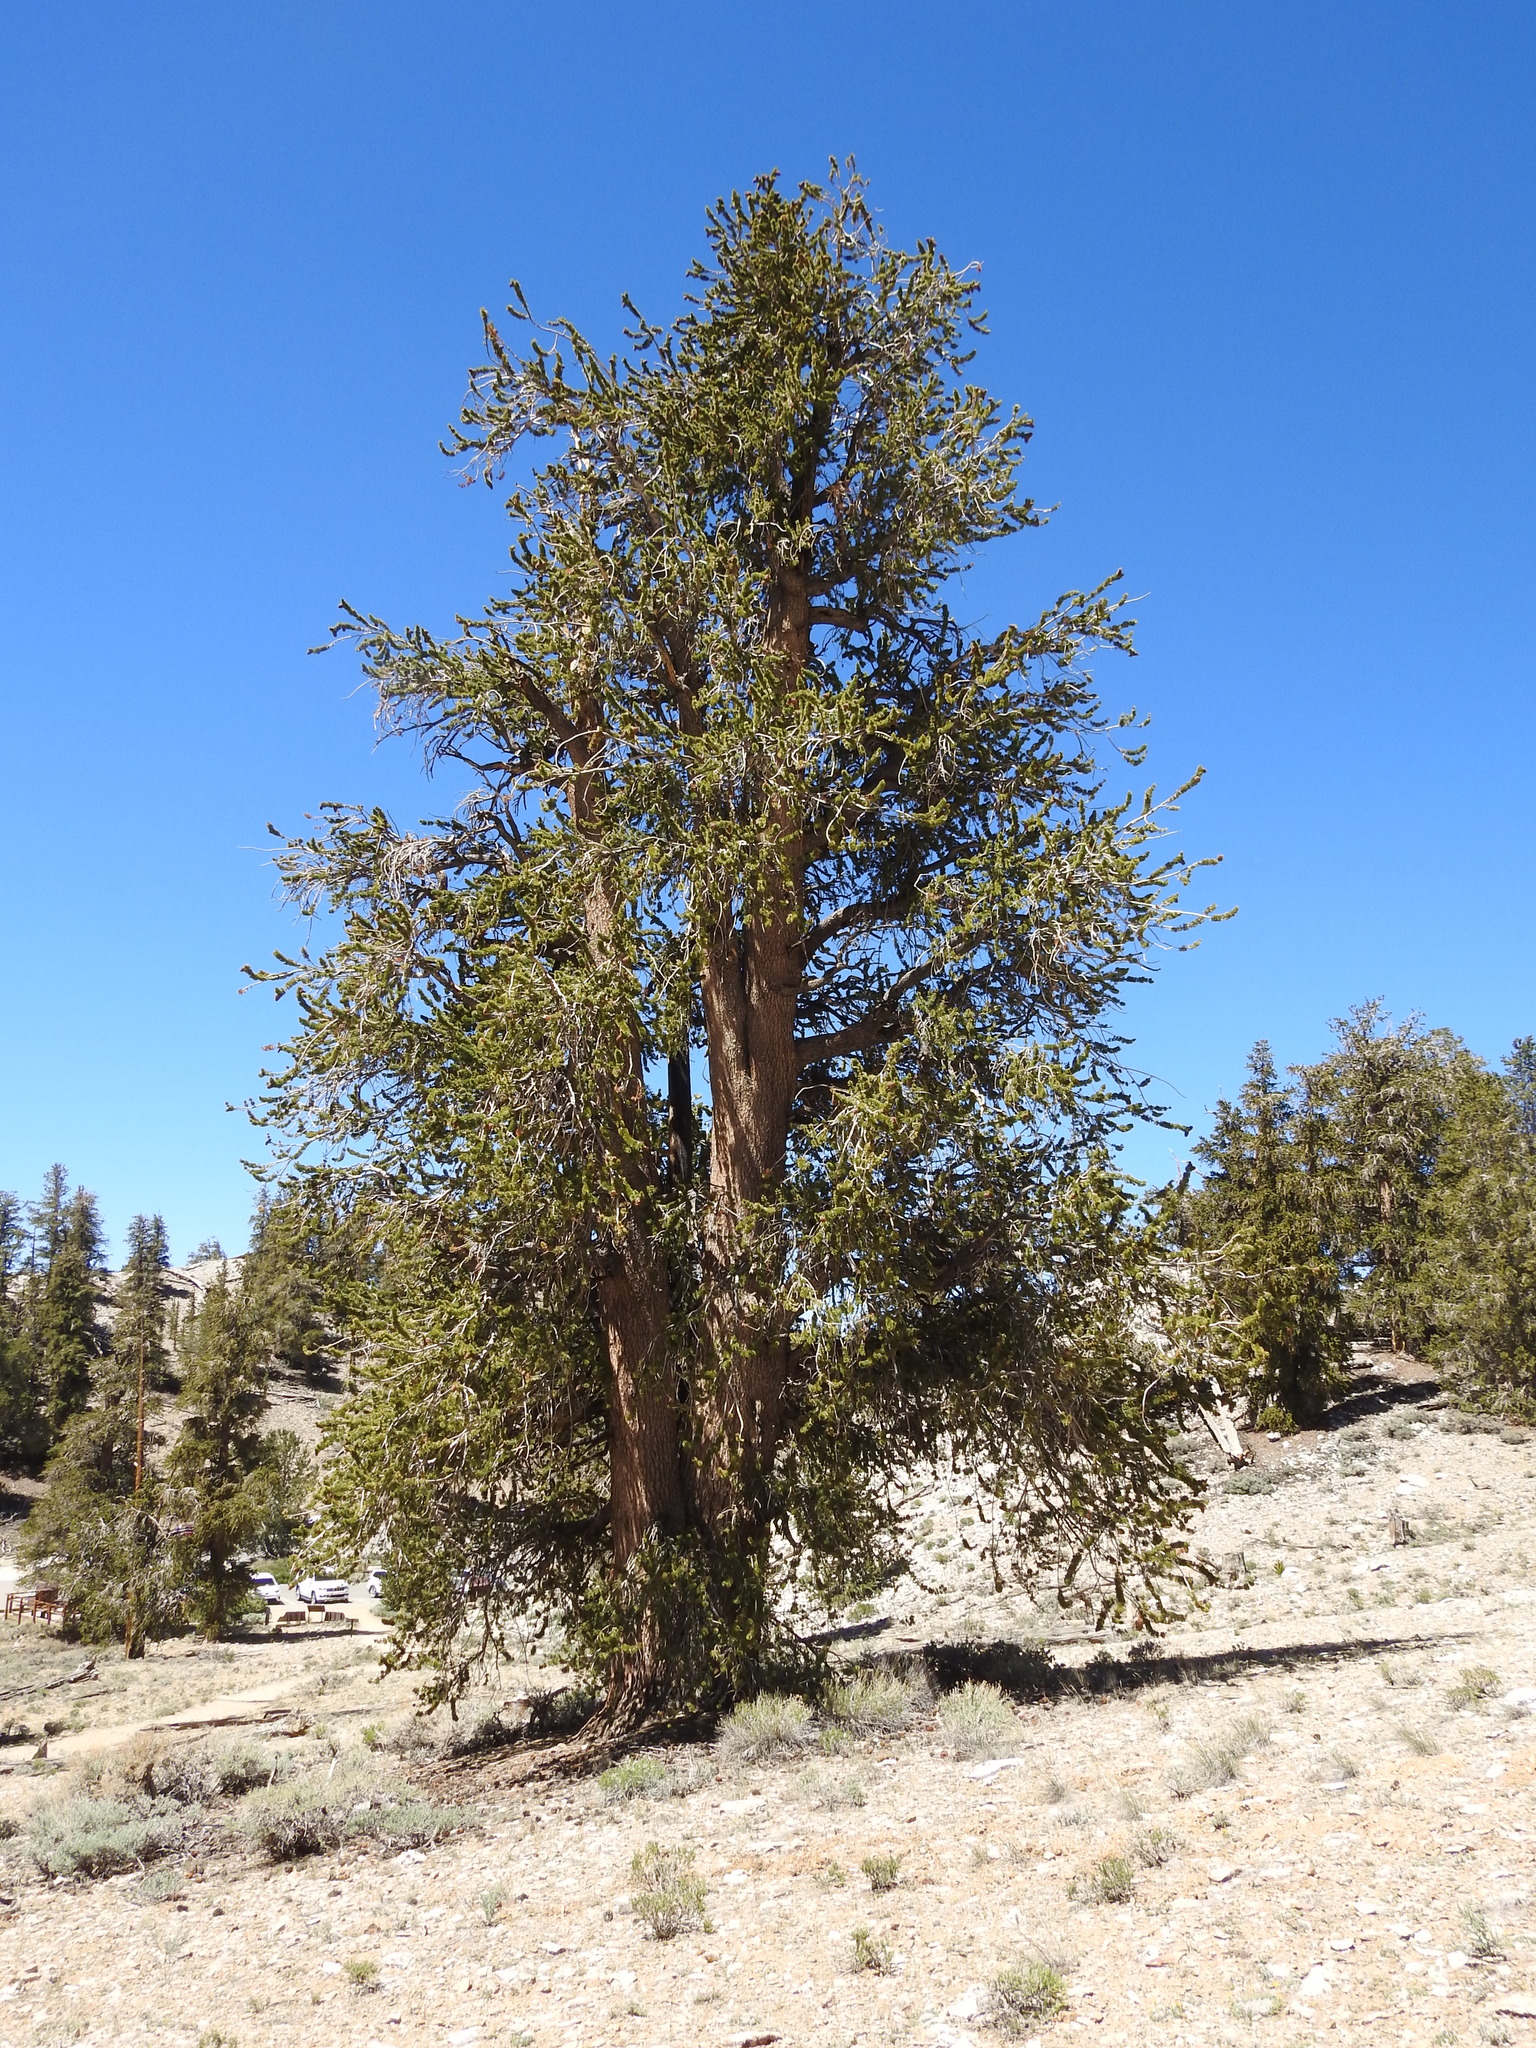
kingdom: Plantae
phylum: Tracheophyta
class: Pinopsida
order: Pinales
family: Pinaceae
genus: Pinus
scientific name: Pinus longaeva
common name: Intermountain bristlecone pine
